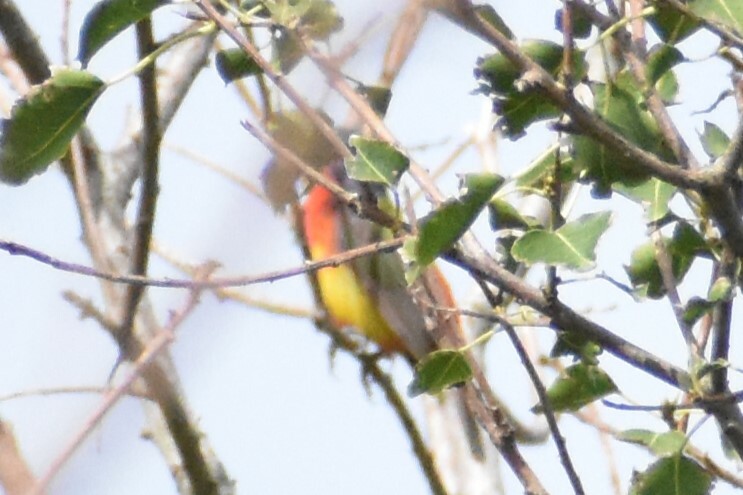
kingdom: Animalia
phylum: Chordata
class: Aves
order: Passeriformes
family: Cardinalidae
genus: Passerina
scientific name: Passerina ciris
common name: Painted bunting
